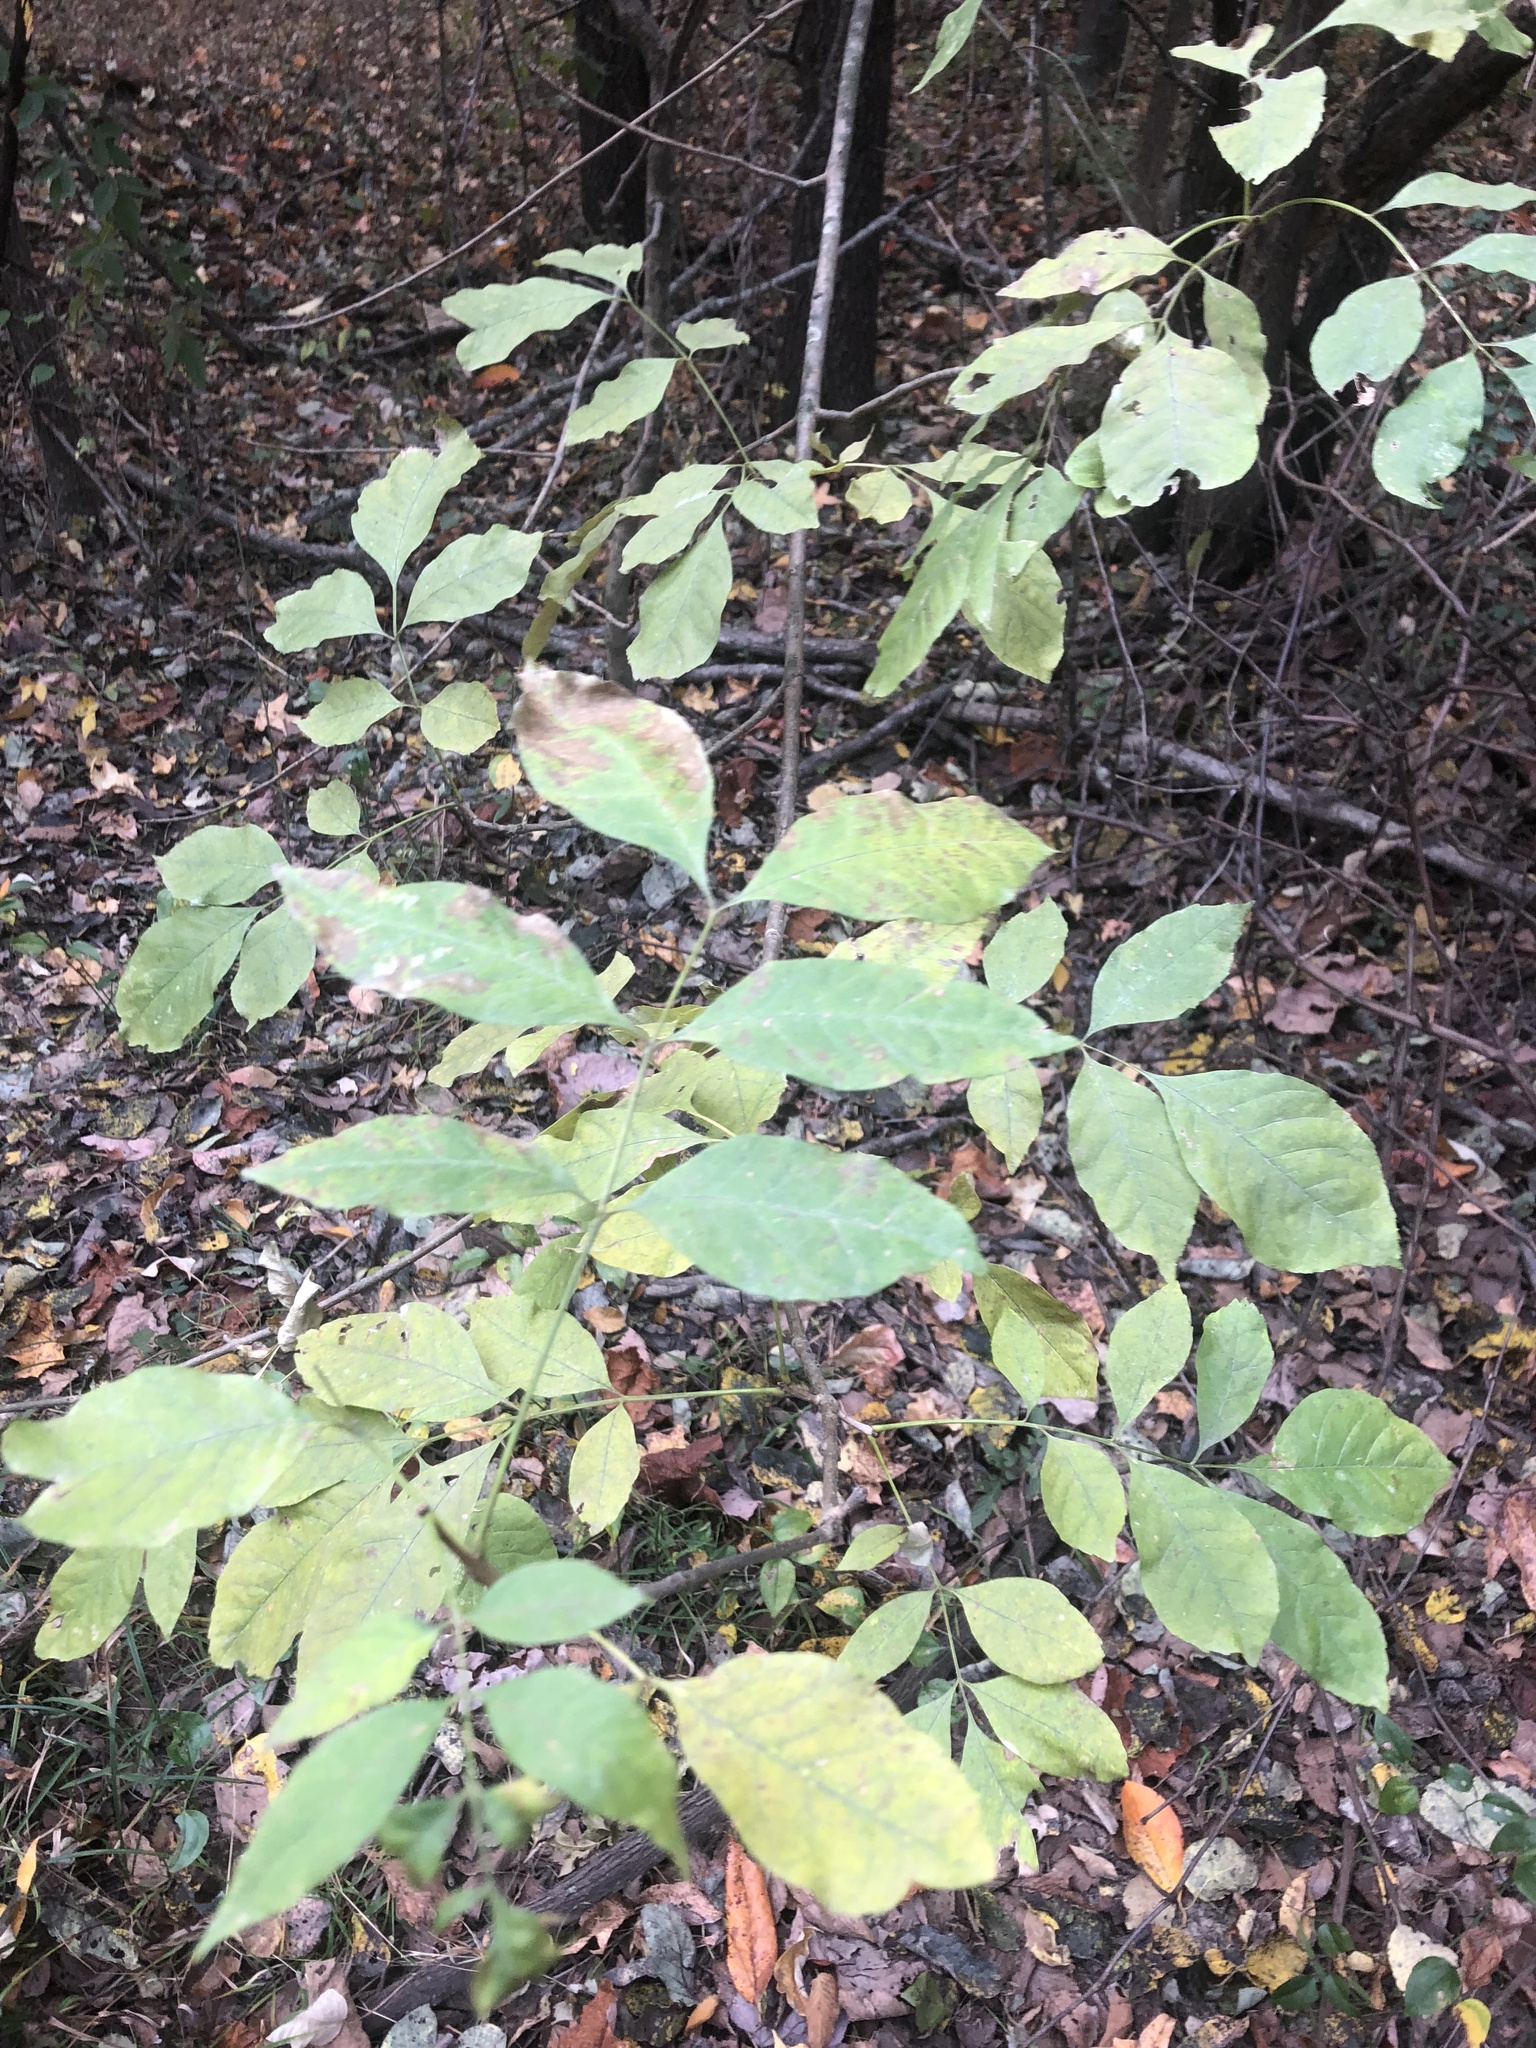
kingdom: Plantae
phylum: Tracheophyta
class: Magnoliopsida
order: Lamiales
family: Oleaceae
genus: Fraxinus
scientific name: Fraxinus pennsylvanica
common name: Green ash
